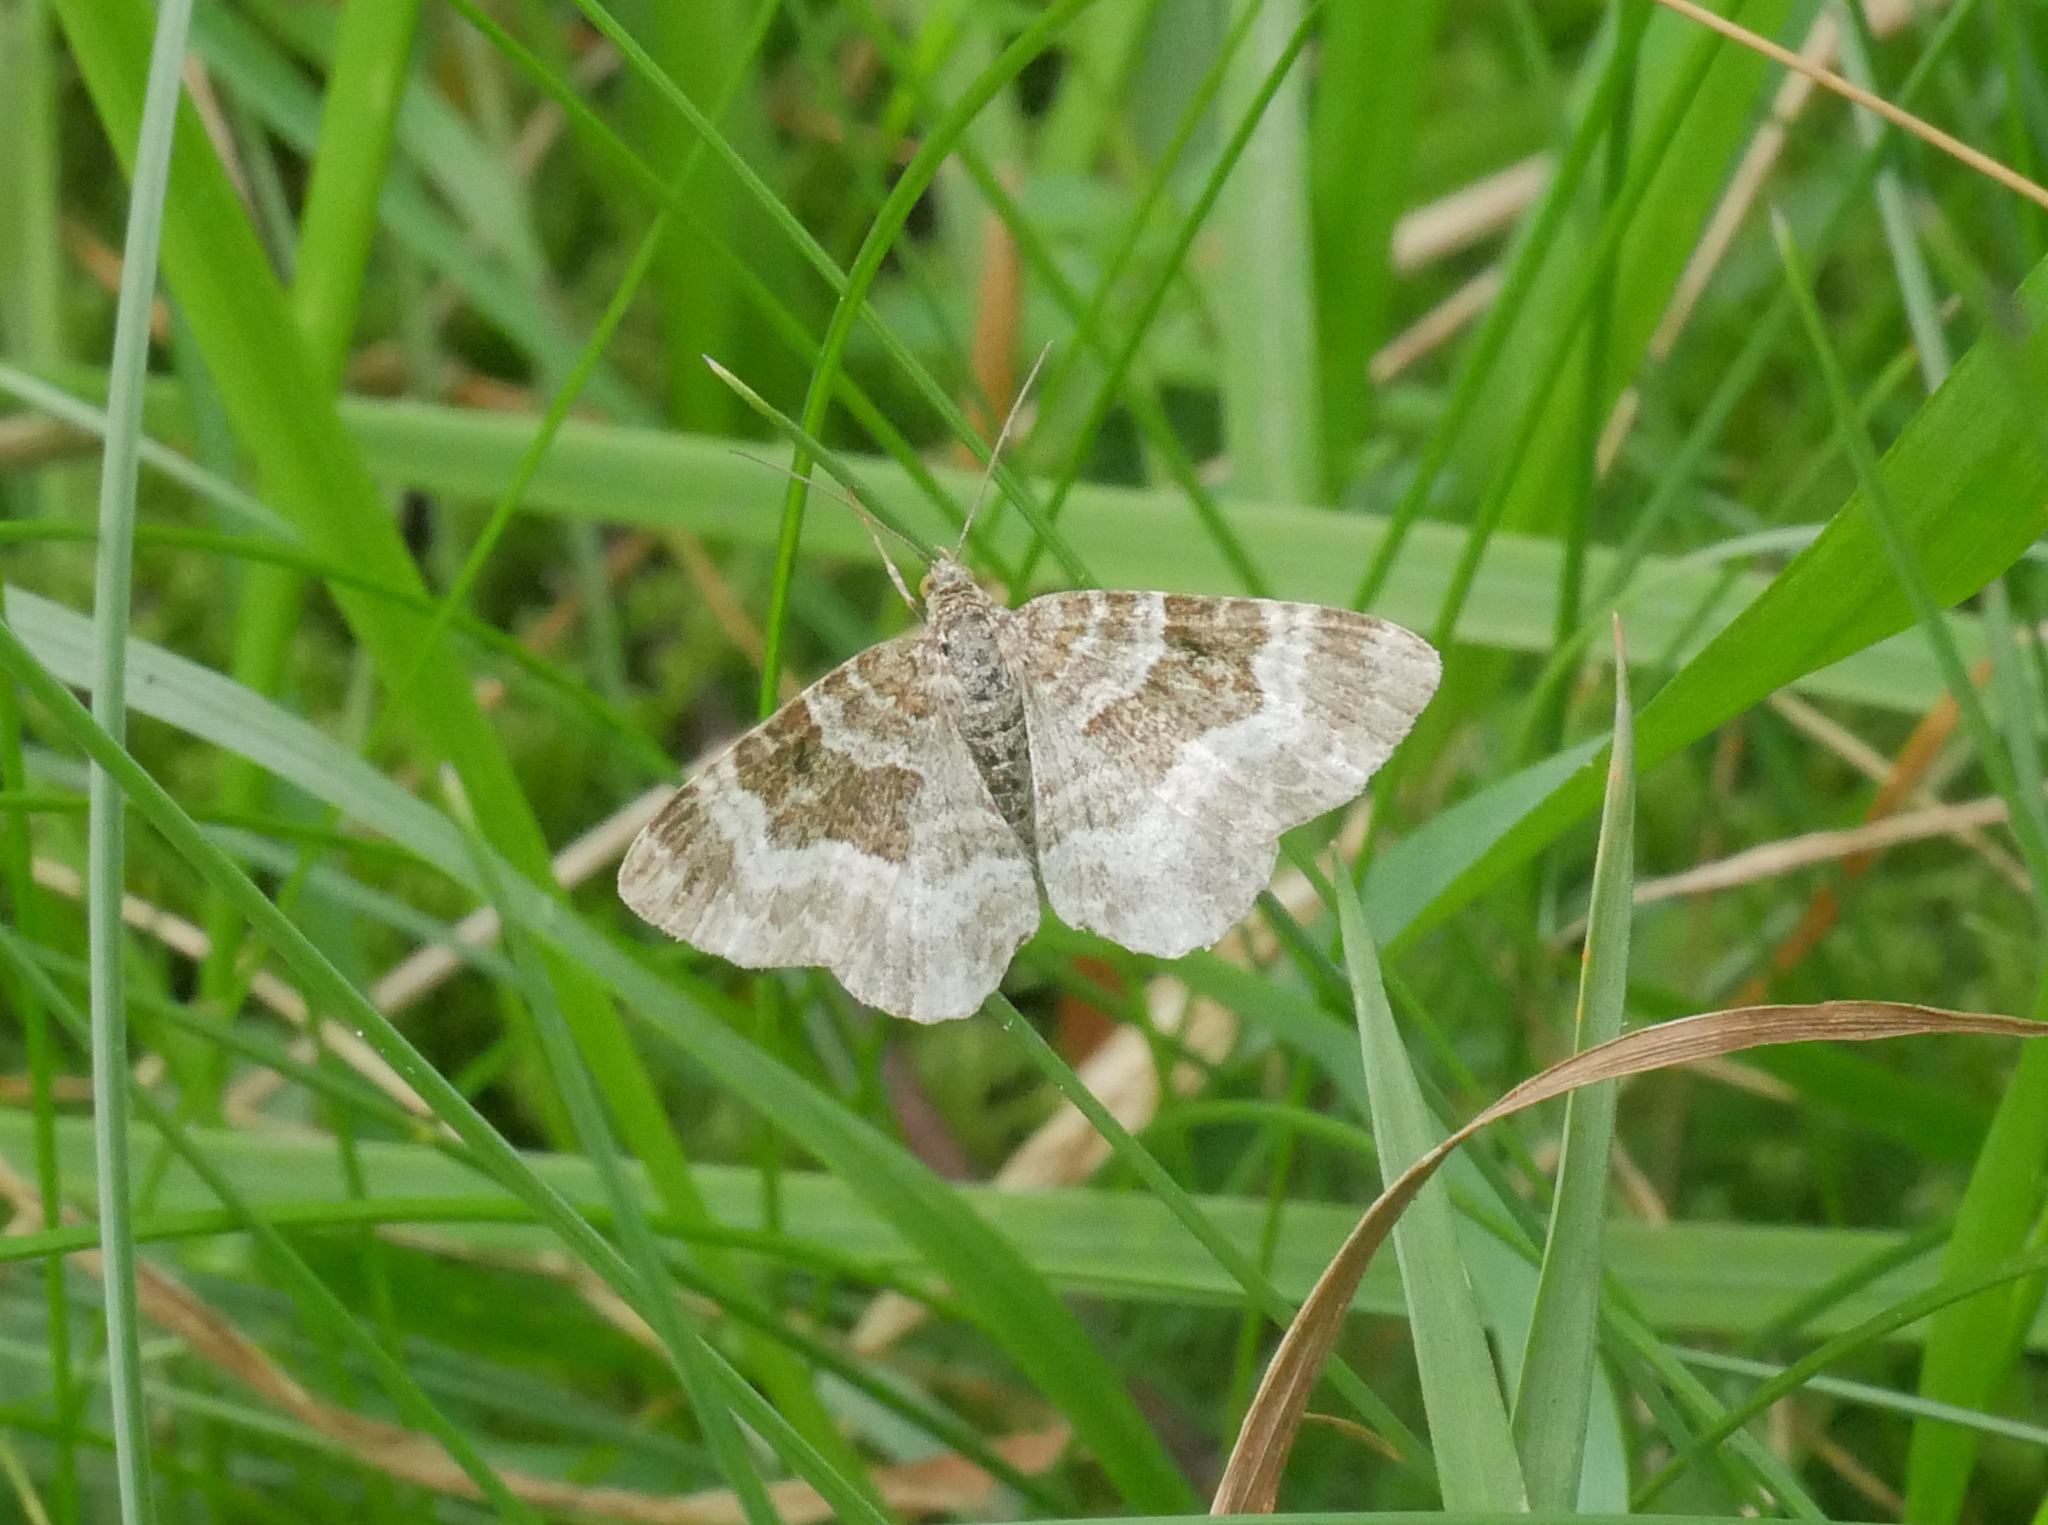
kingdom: Animalia
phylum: Arthropoda
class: Insecta
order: Lepidoptera
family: Geometridae
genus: Epirrhoe
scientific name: Epirrhoe alternata
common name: Common carpet
